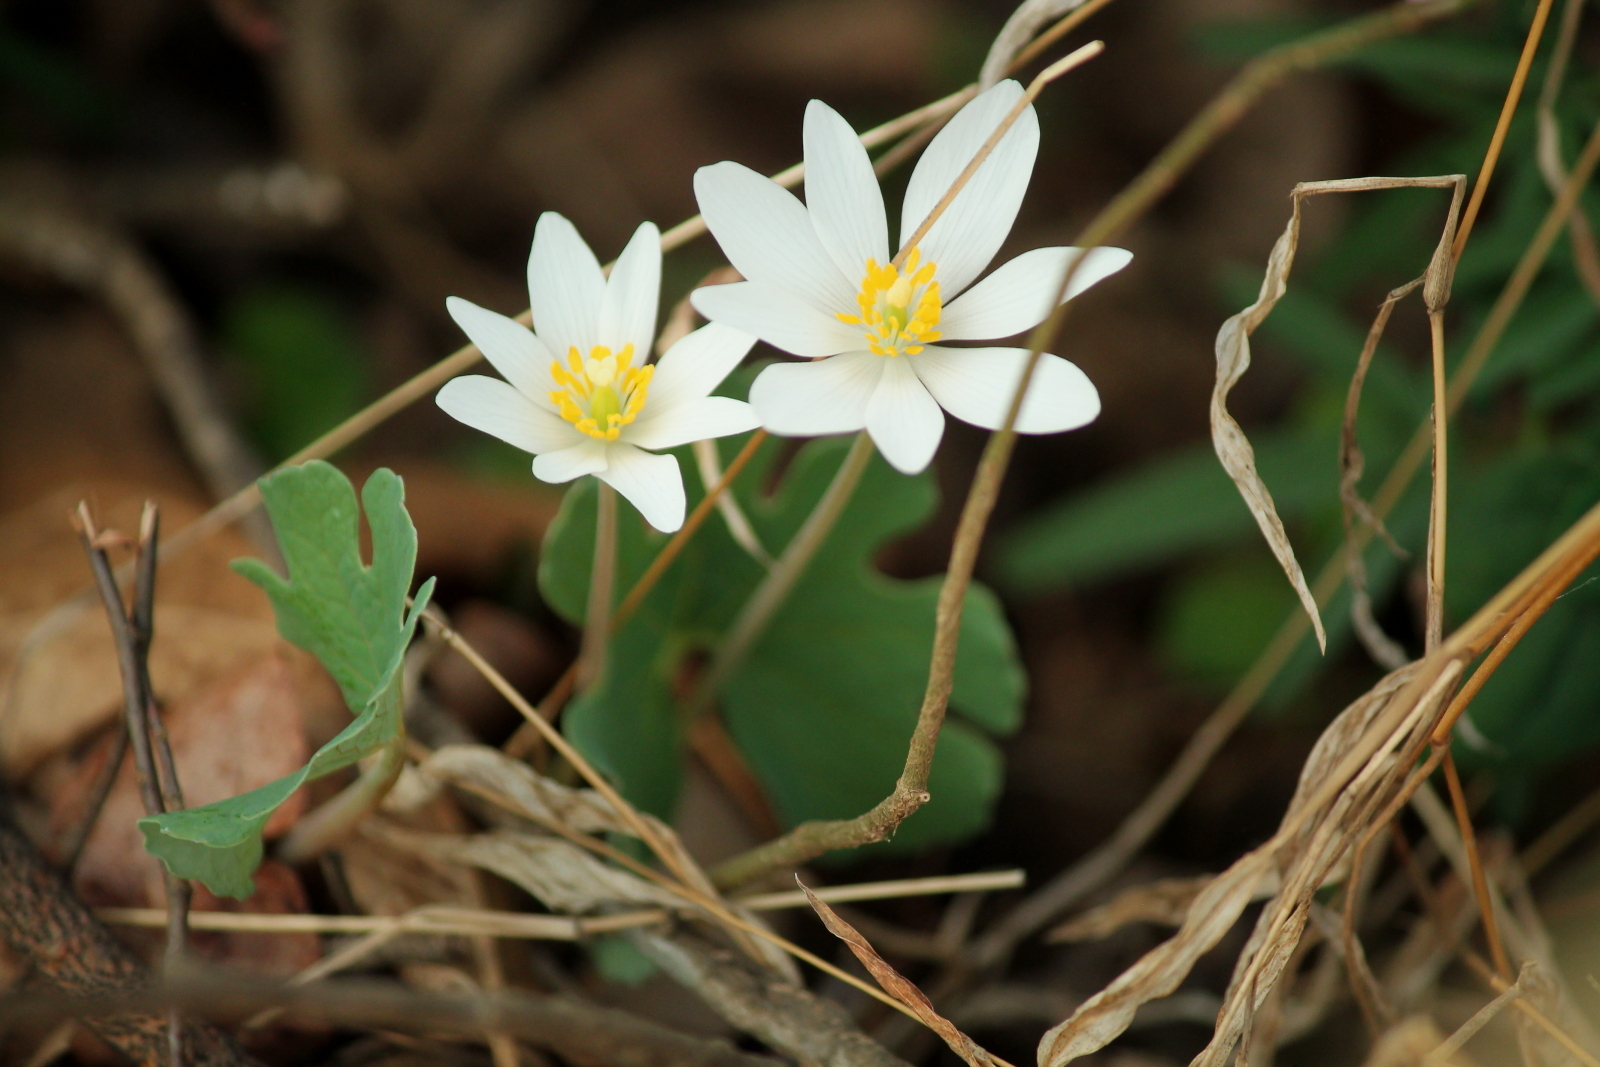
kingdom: Plantae
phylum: Tracheophyta
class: Magnoliopsida
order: Ranunculales
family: Papaveraceae
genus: Sanguinaria
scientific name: Sanguinaria canadensis
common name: Bloodroot
